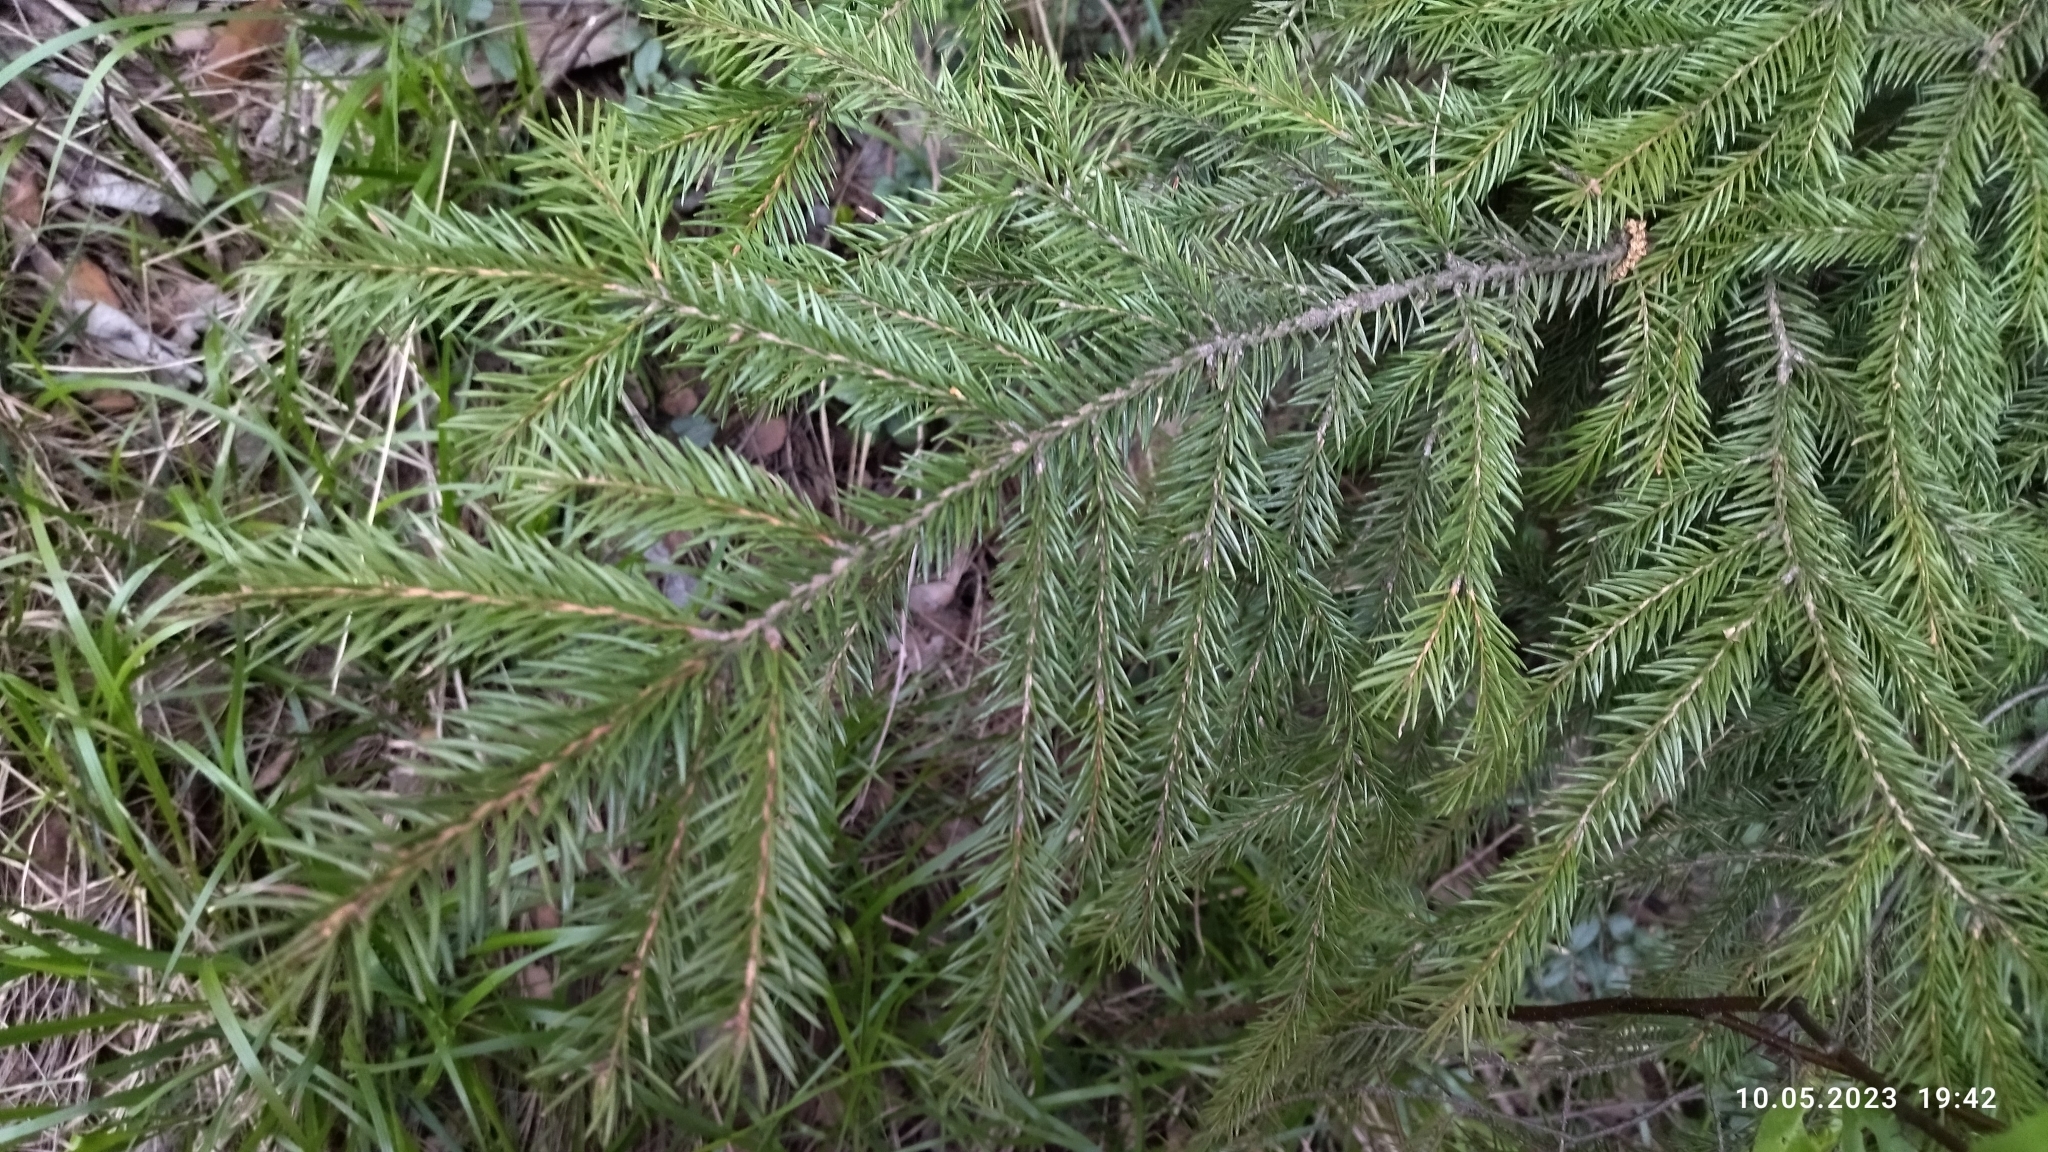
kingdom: Plantae
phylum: Tracheophyta
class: Pinopsida
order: Pinales
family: Pinaceae
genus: Picea
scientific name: Picea abies
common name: Norway spruce
